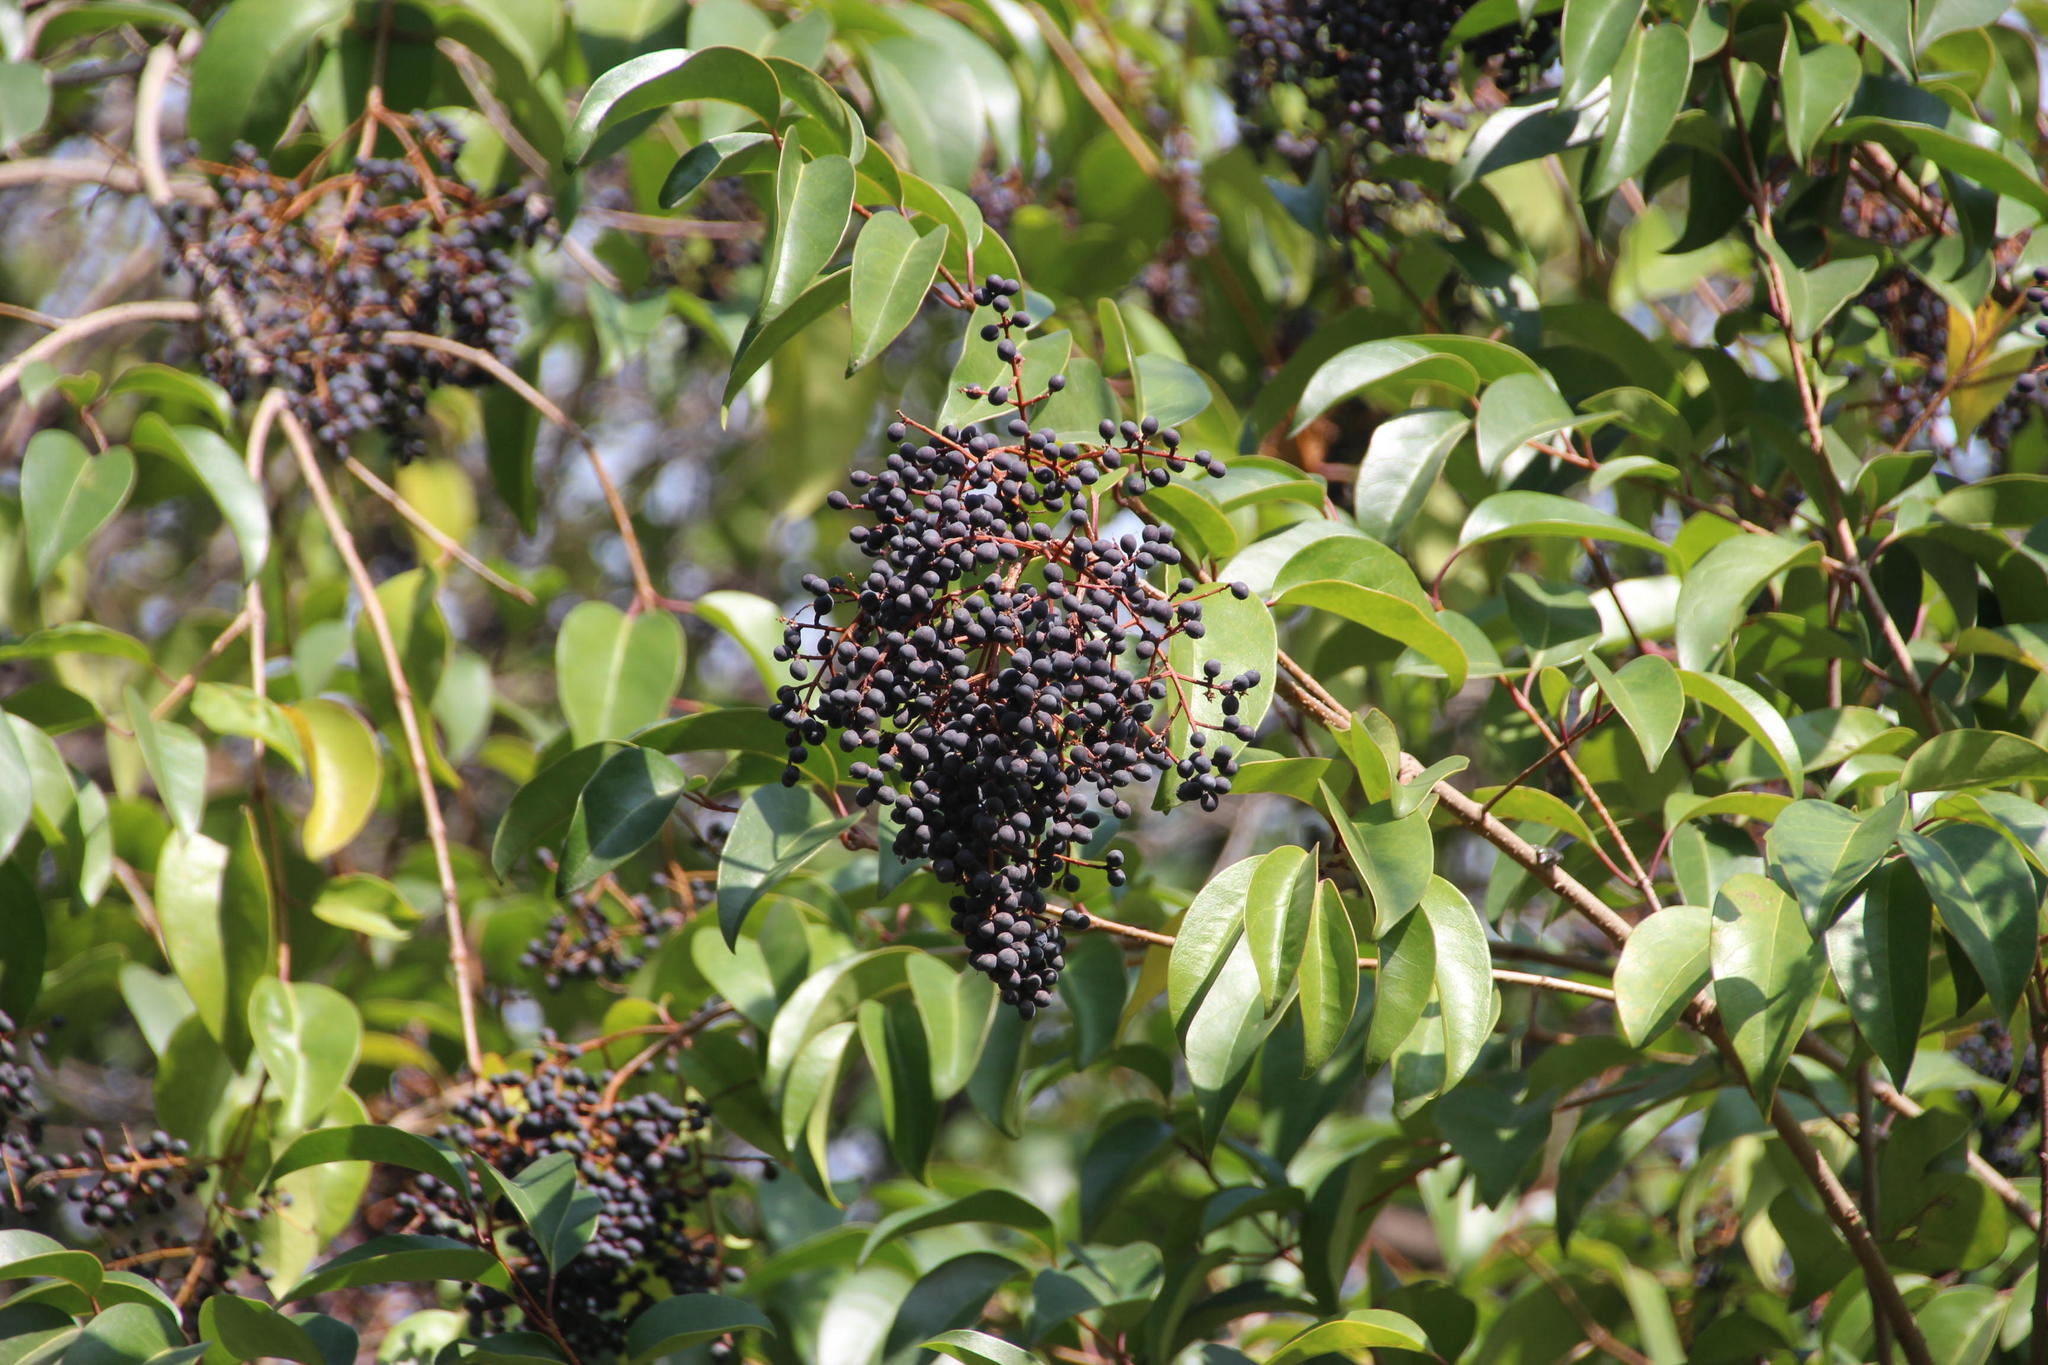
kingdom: Plantae
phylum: Tracheophyta
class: Magnoliopsida
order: Lamiales
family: Oleaceae
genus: Ligustrum
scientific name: Ligustrum lucidum
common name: Glossy privet
